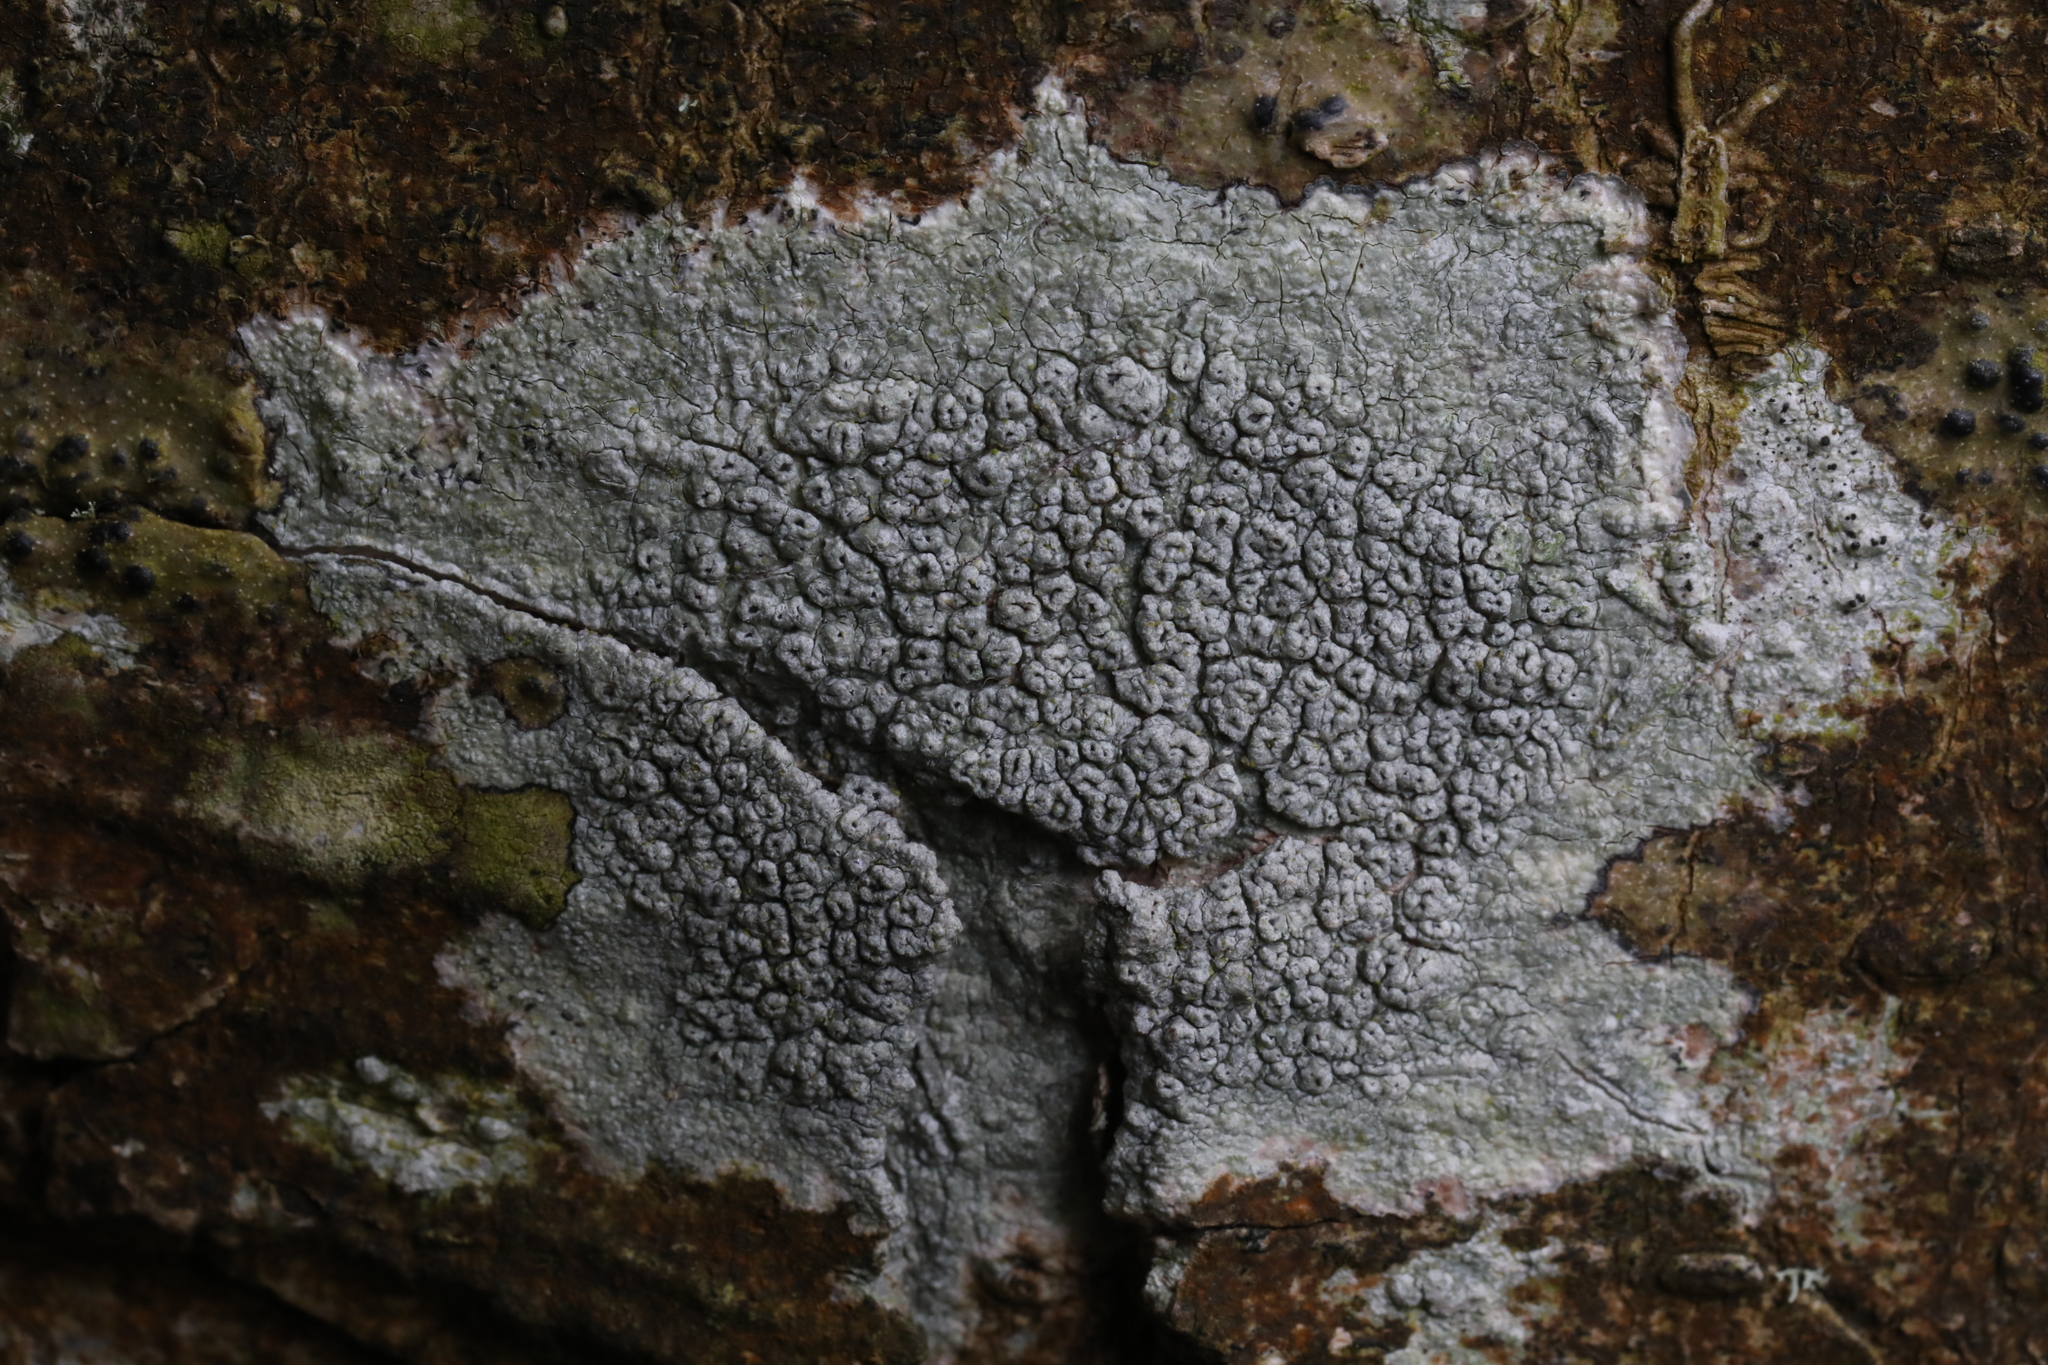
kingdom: Fungi
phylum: Ascomycota
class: Lecanoromycetes
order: Pertusariales
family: Pertusariaceae
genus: Pertusaria
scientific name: Pertusaria pertusa
